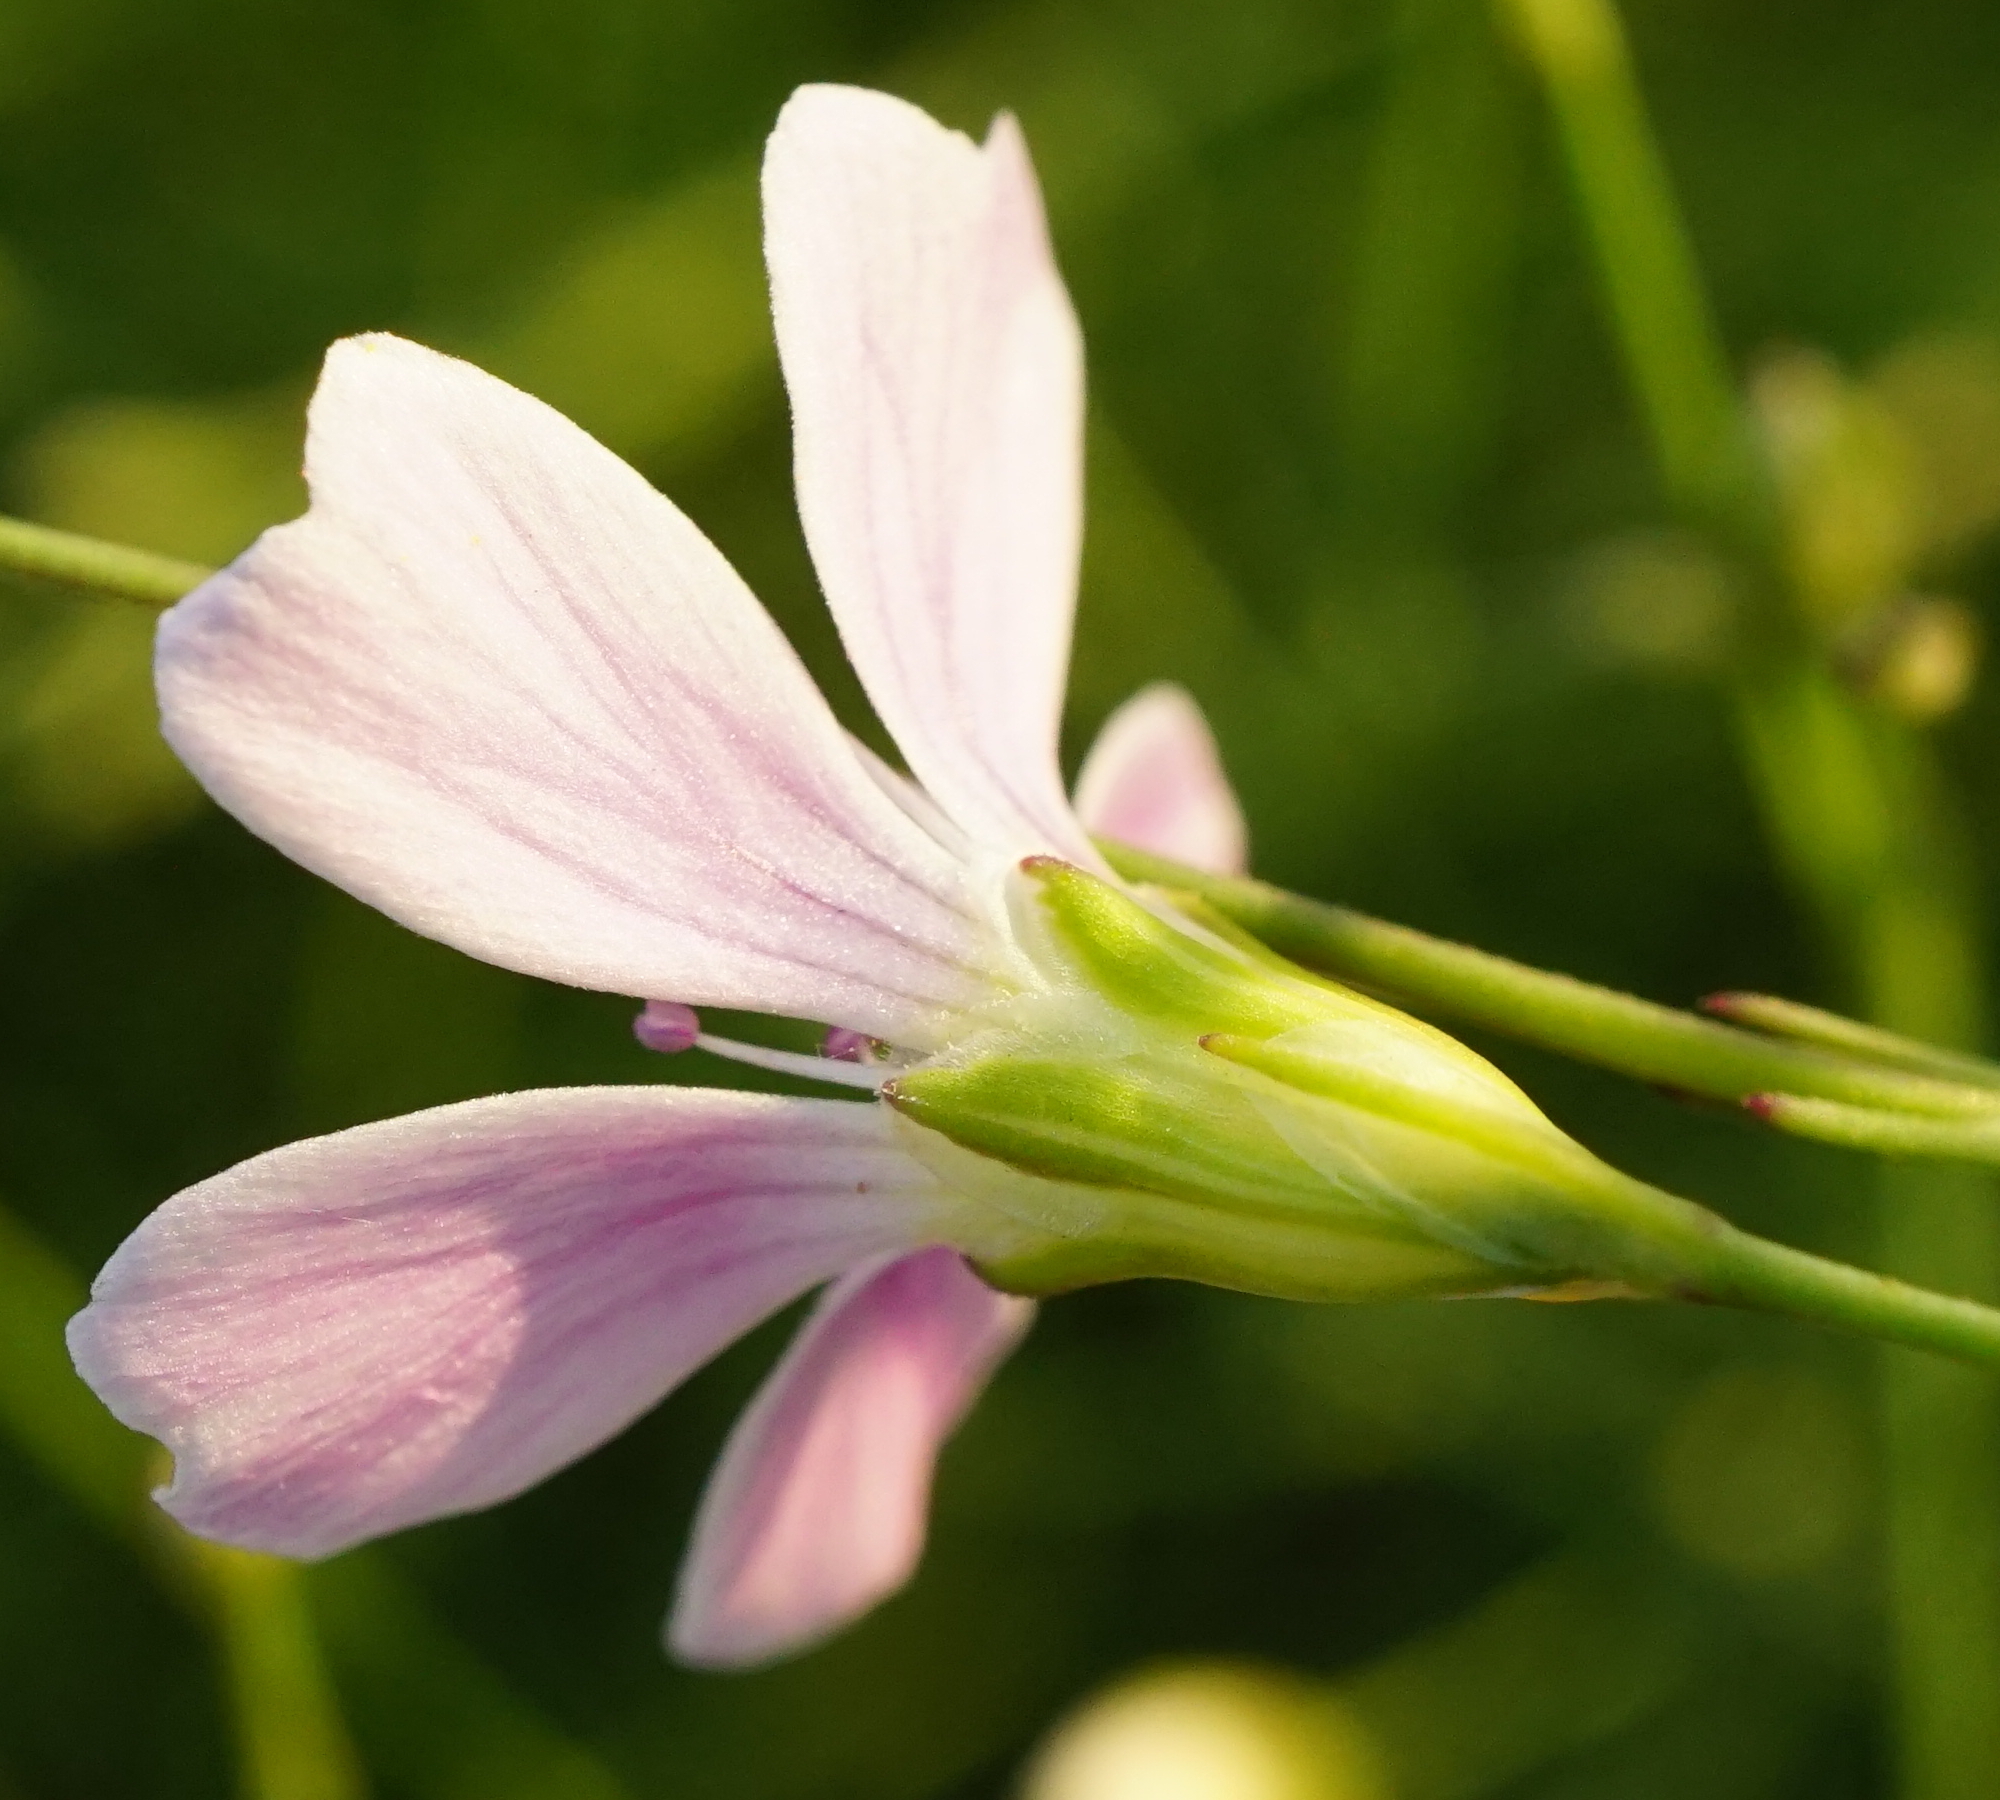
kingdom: Plantae
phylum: Tracheophyta
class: Magnoliopsida
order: Caryophyllales
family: Caryophyllaceae
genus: Petrorhagia
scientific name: Petrorhagia saxifraga
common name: Tunicflower
